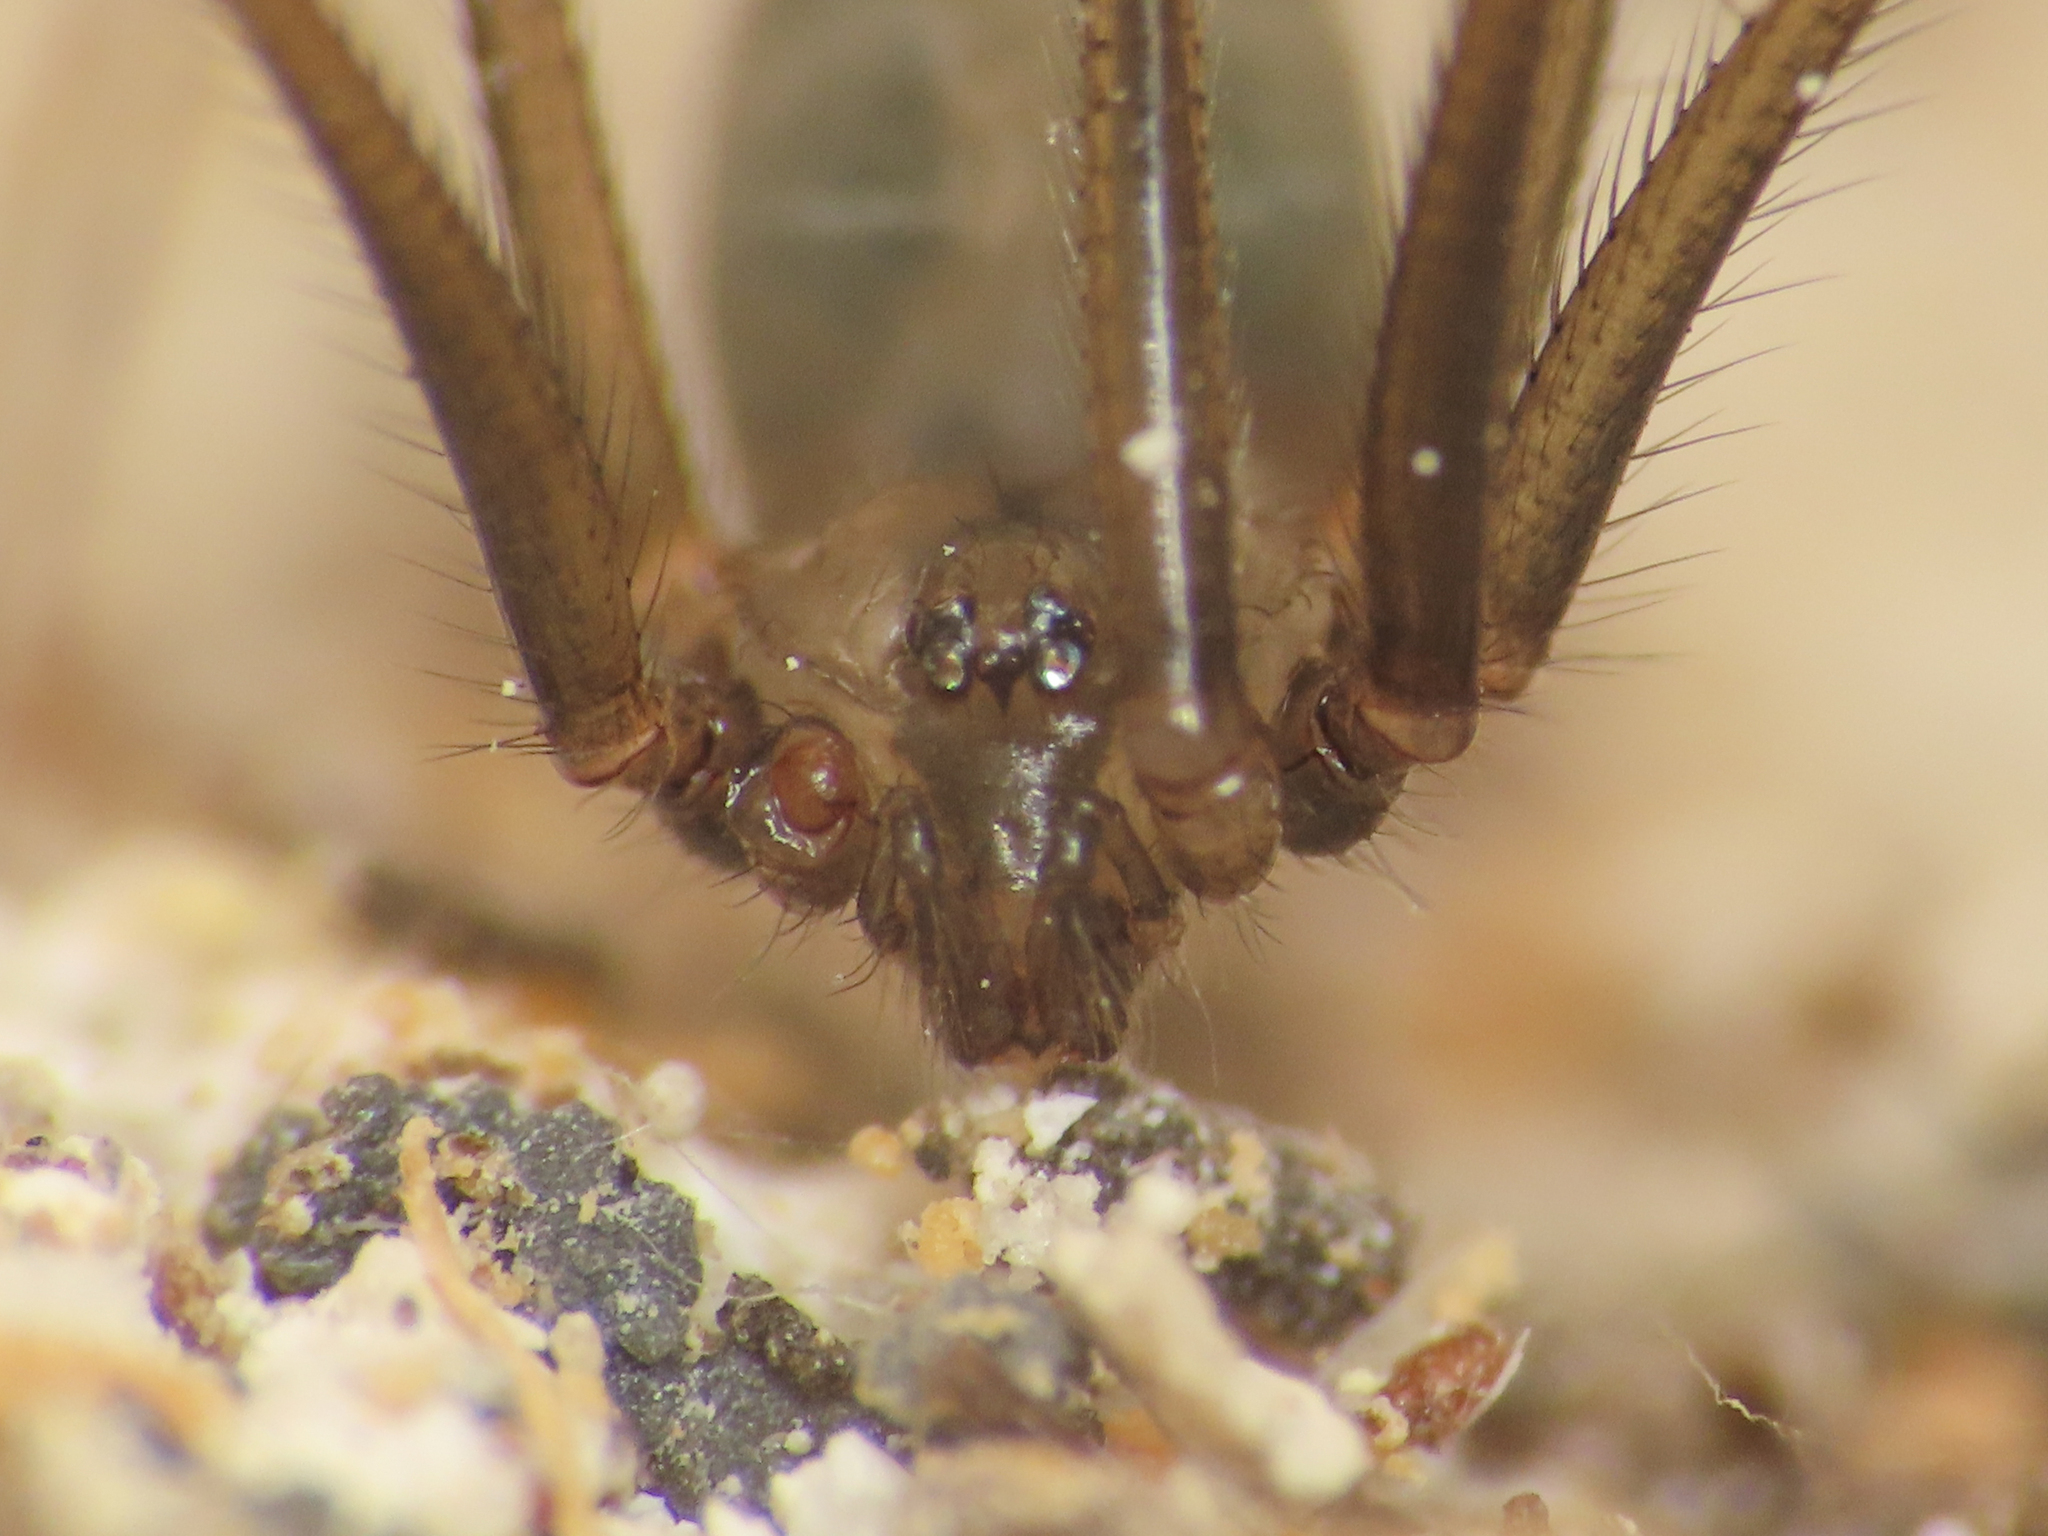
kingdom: Animalia
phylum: Arthropoda
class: Arachnida
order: Araneae
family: Pholcidae
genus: Psilochorus
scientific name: Psilochorus simoni
